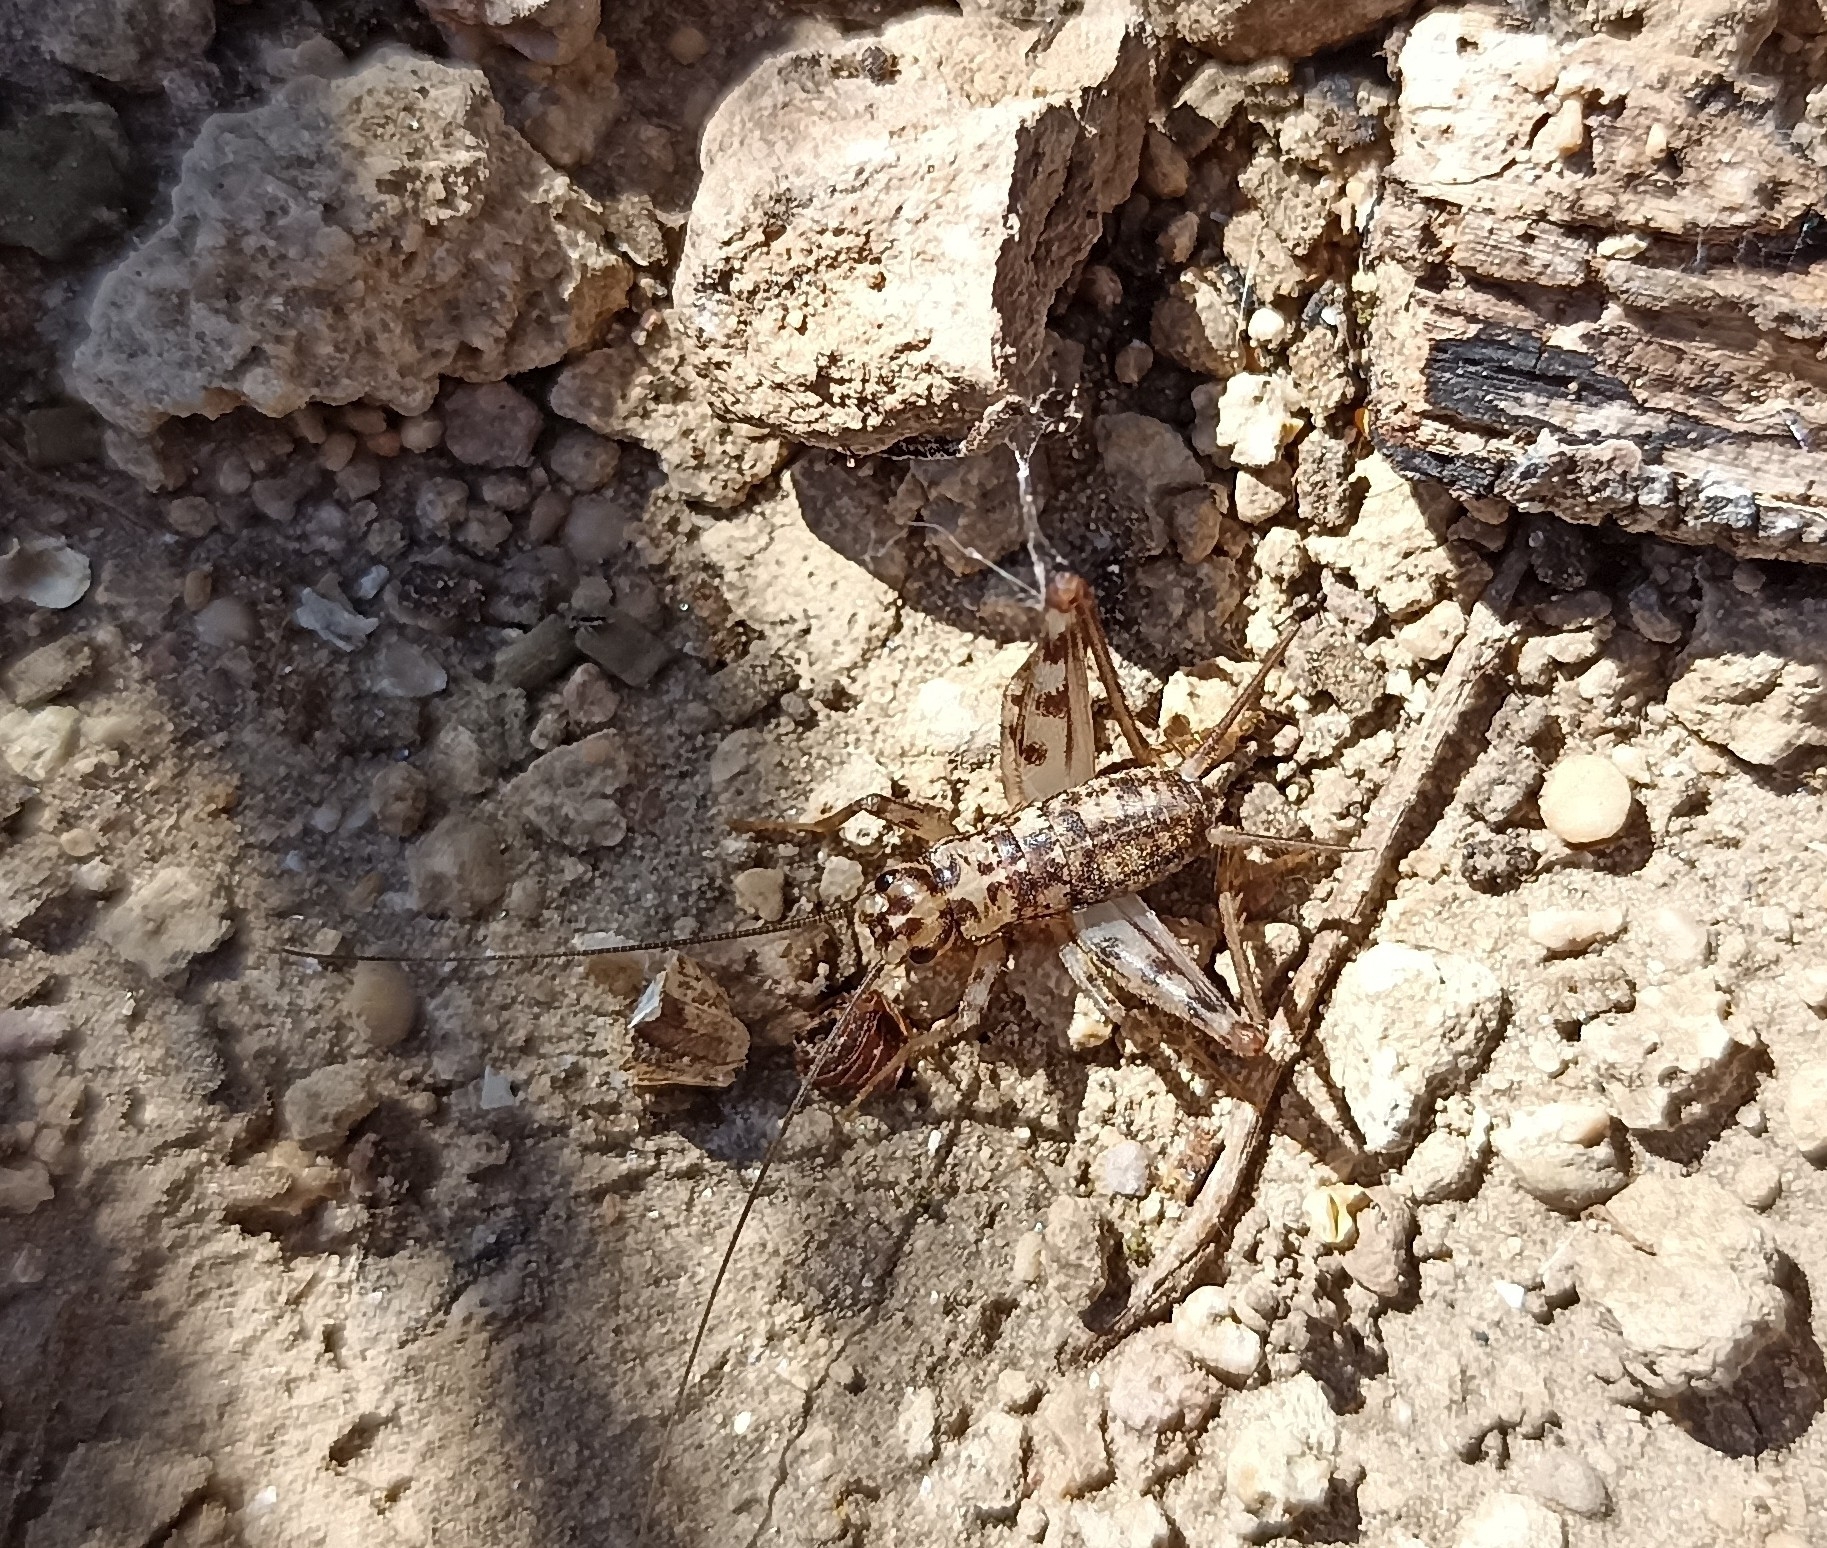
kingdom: Animalia
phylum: Arthropoda
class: Insecta
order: Orthoptera
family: Gryllidae
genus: Gryllomorpha
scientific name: Gryllomorpha dalmatina
